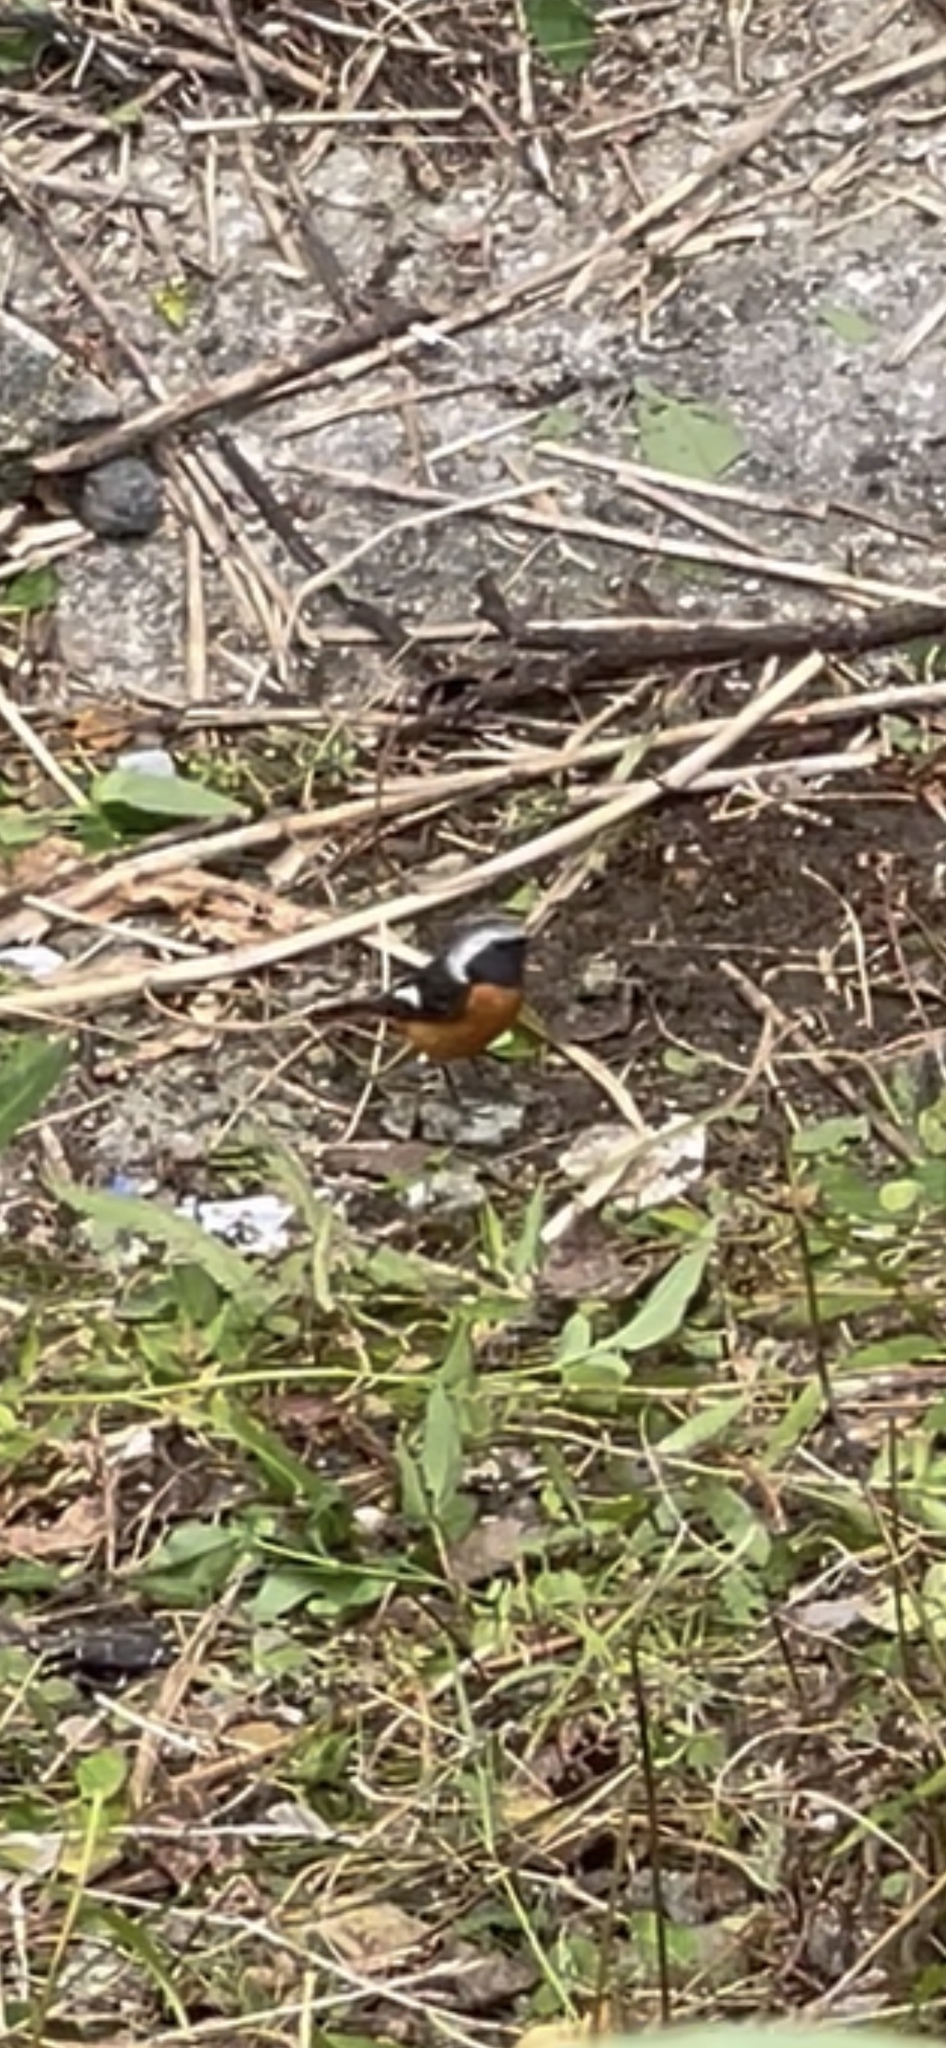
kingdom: Animalia
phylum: Chordata
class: Aves
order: Passeriformes
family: Muscicapidae
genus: Phoenicurus
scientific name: Phoenicurus auroreus
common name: Daurian redstart
